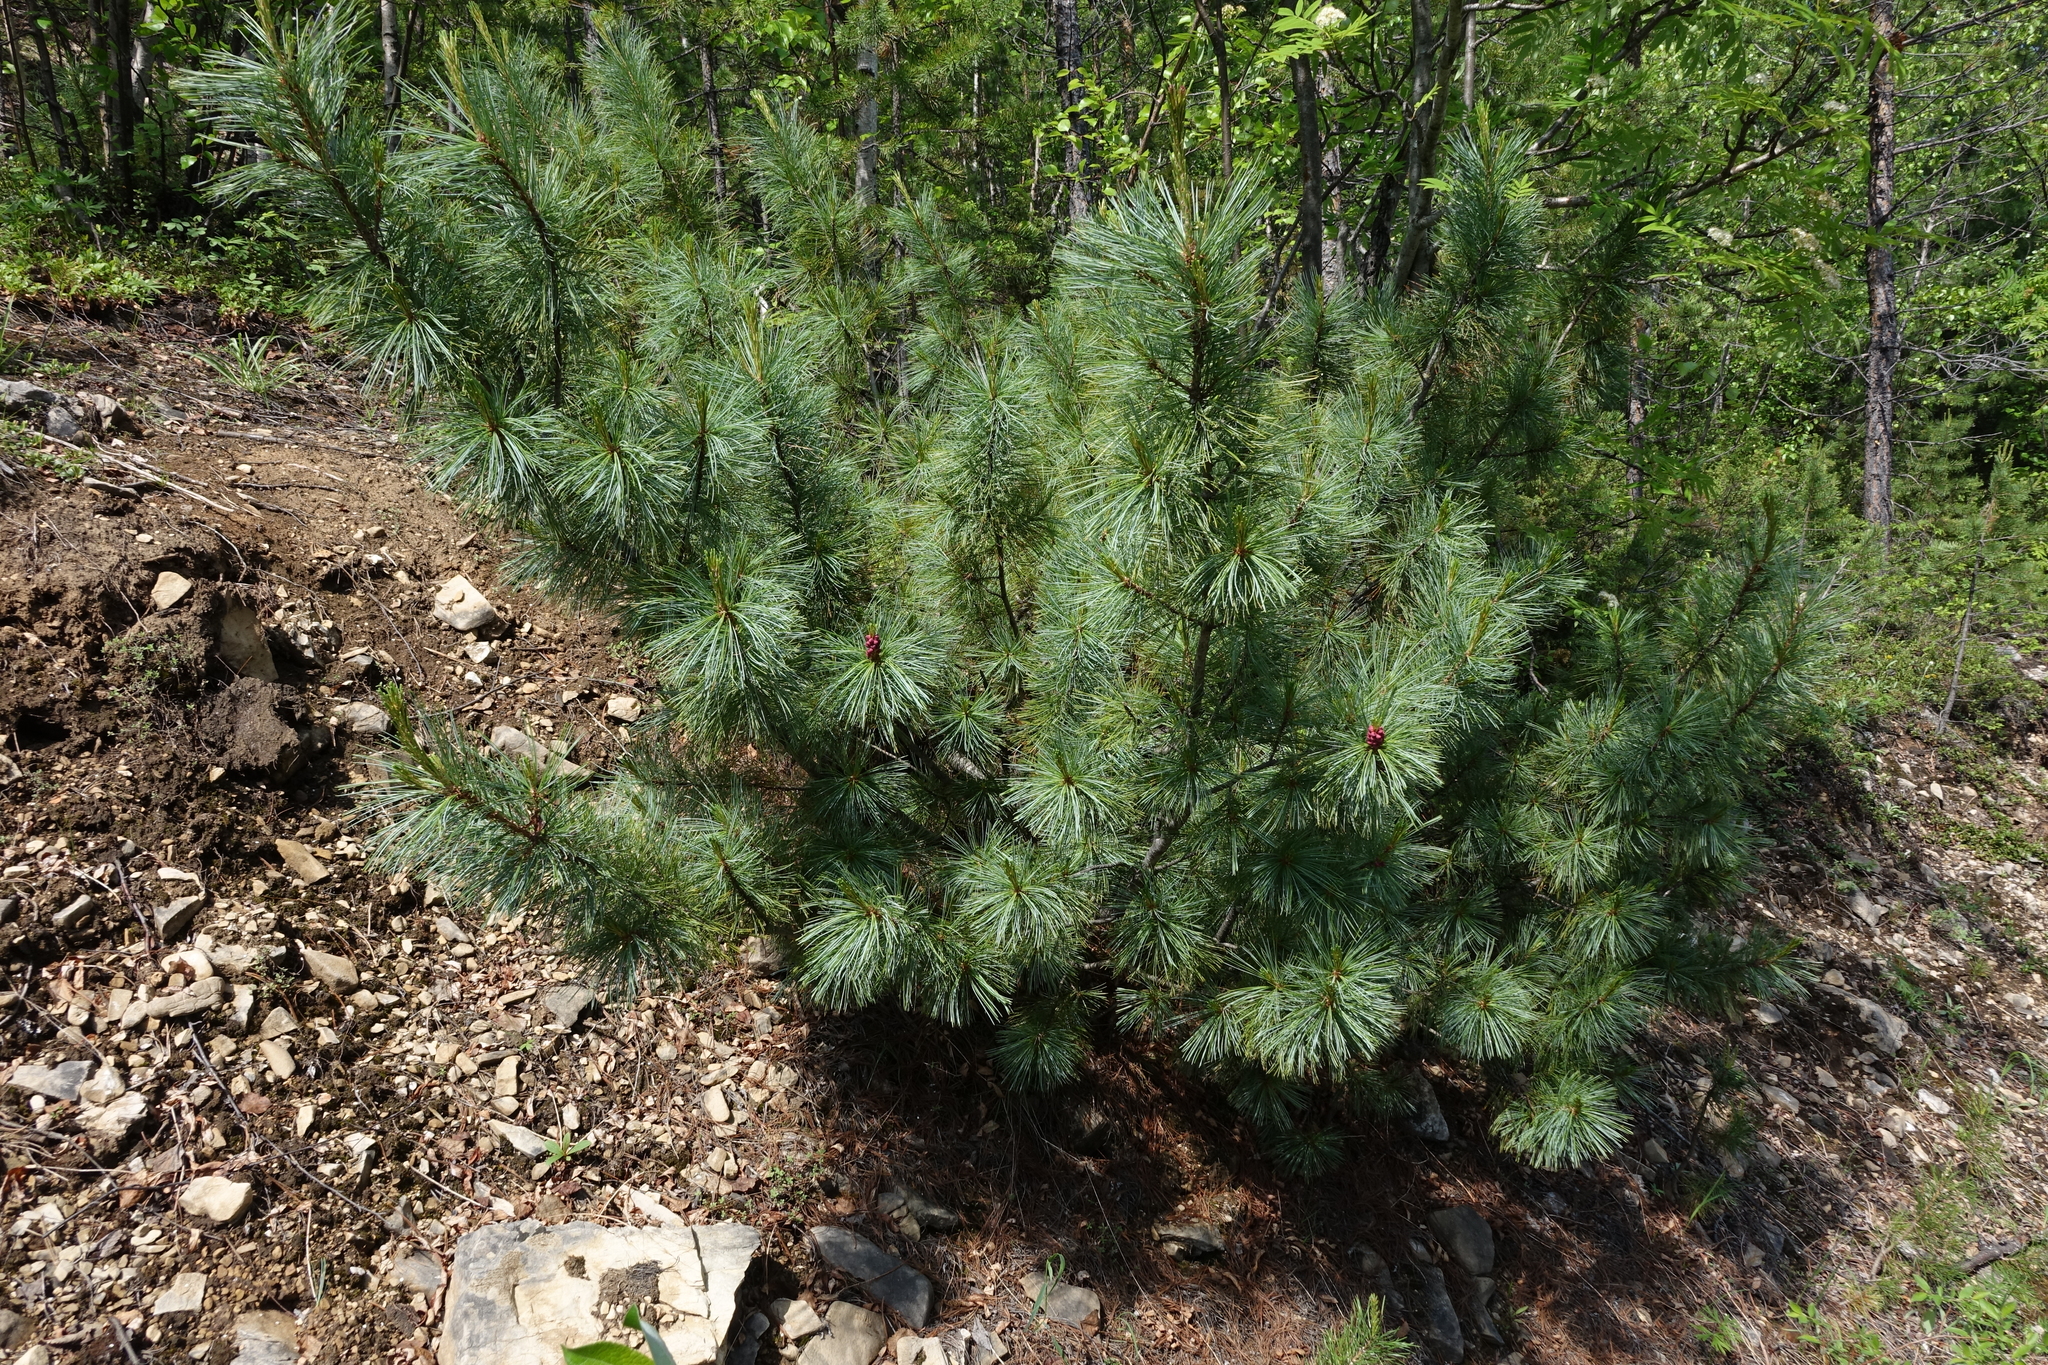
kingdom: Plantae
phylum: Tracheophyta
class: Pinopsida
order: Pinales
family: Pinaceae
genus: Pinus
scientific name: Pinus pumila
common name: Dwarf siberian pine
